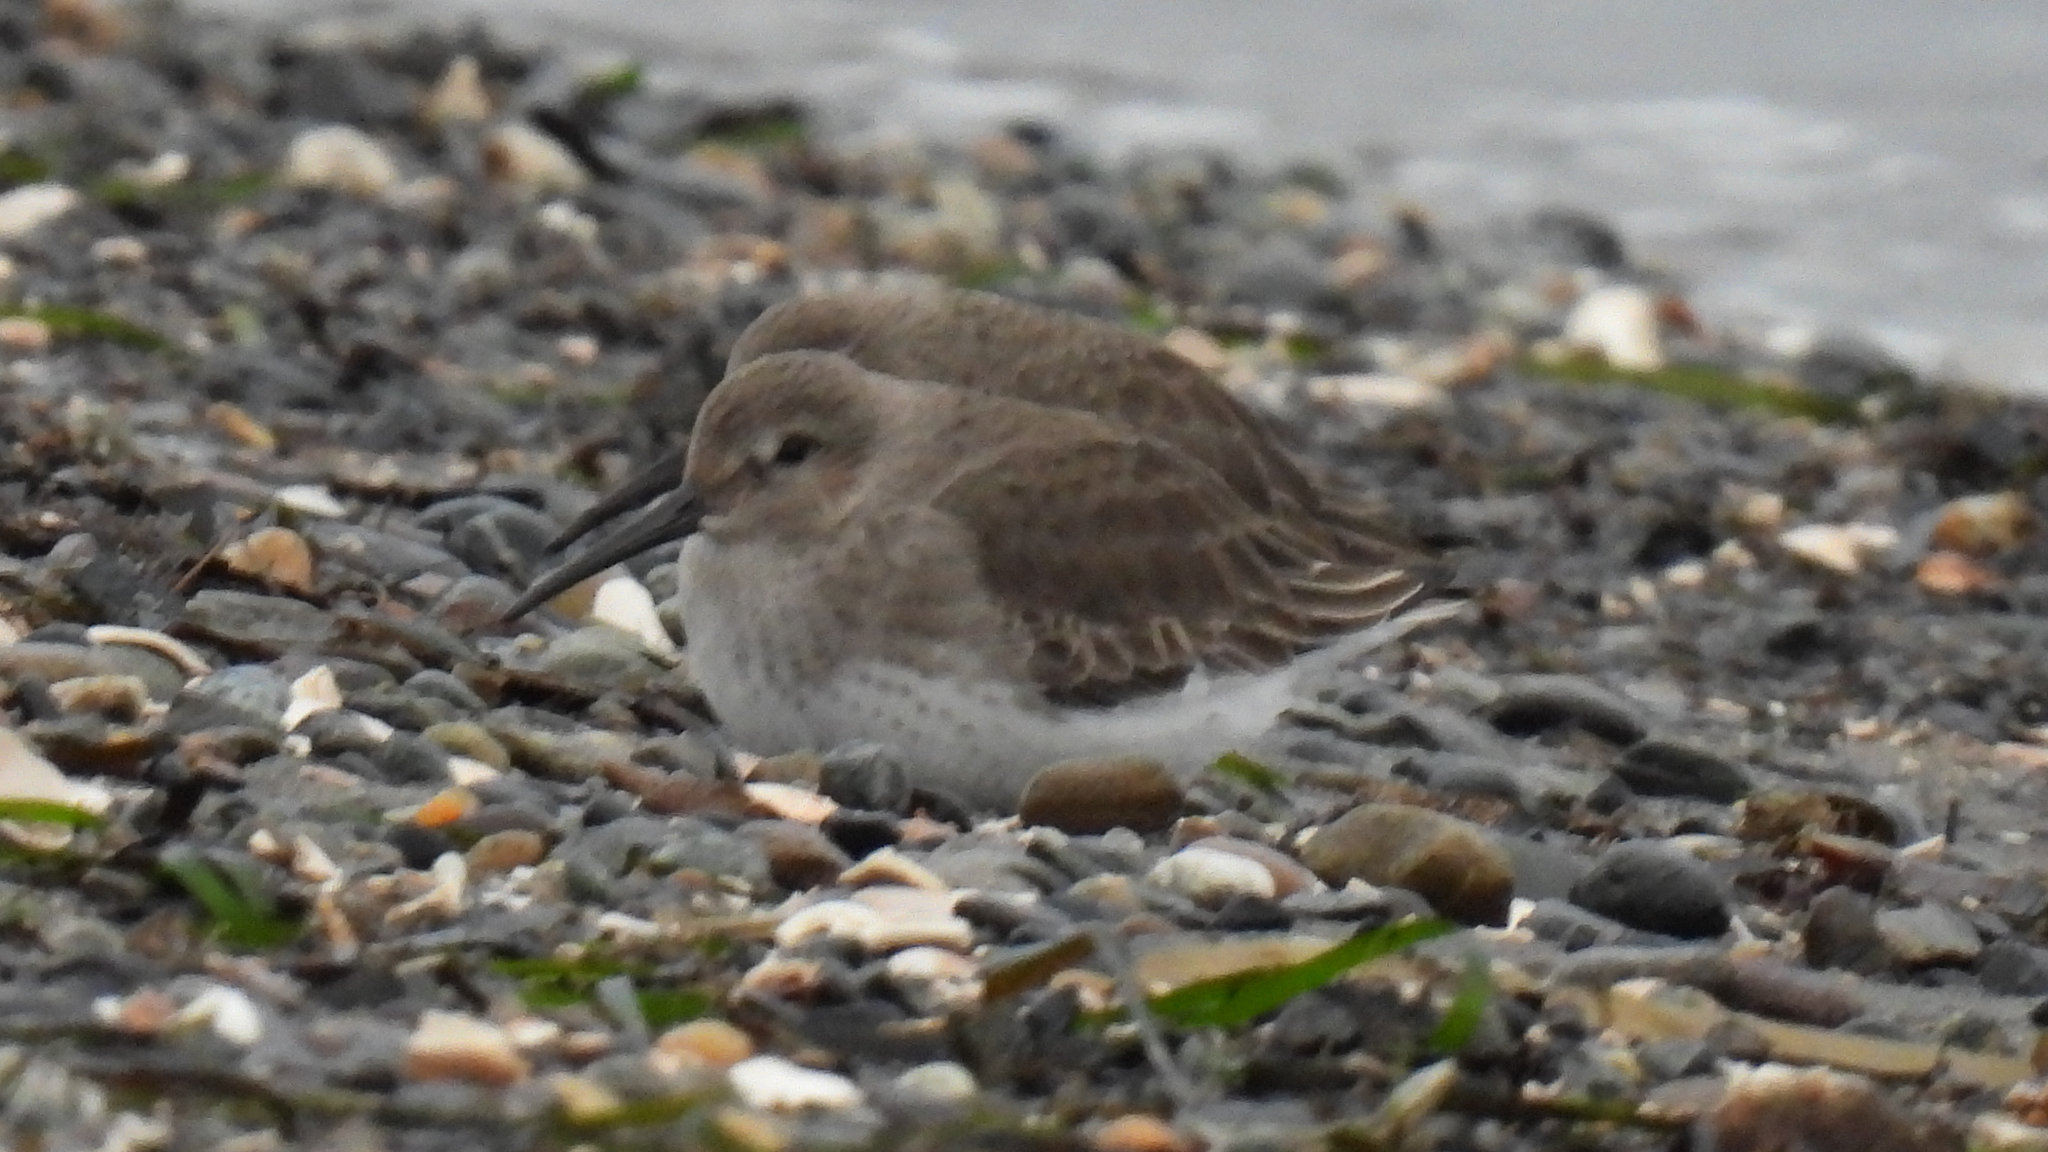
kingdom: Animalia
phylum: Chordata
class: Aves
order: Charadriiformes
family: Scolopacidae
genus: Calidris
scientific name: Calidris alpina
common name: Dunlin
